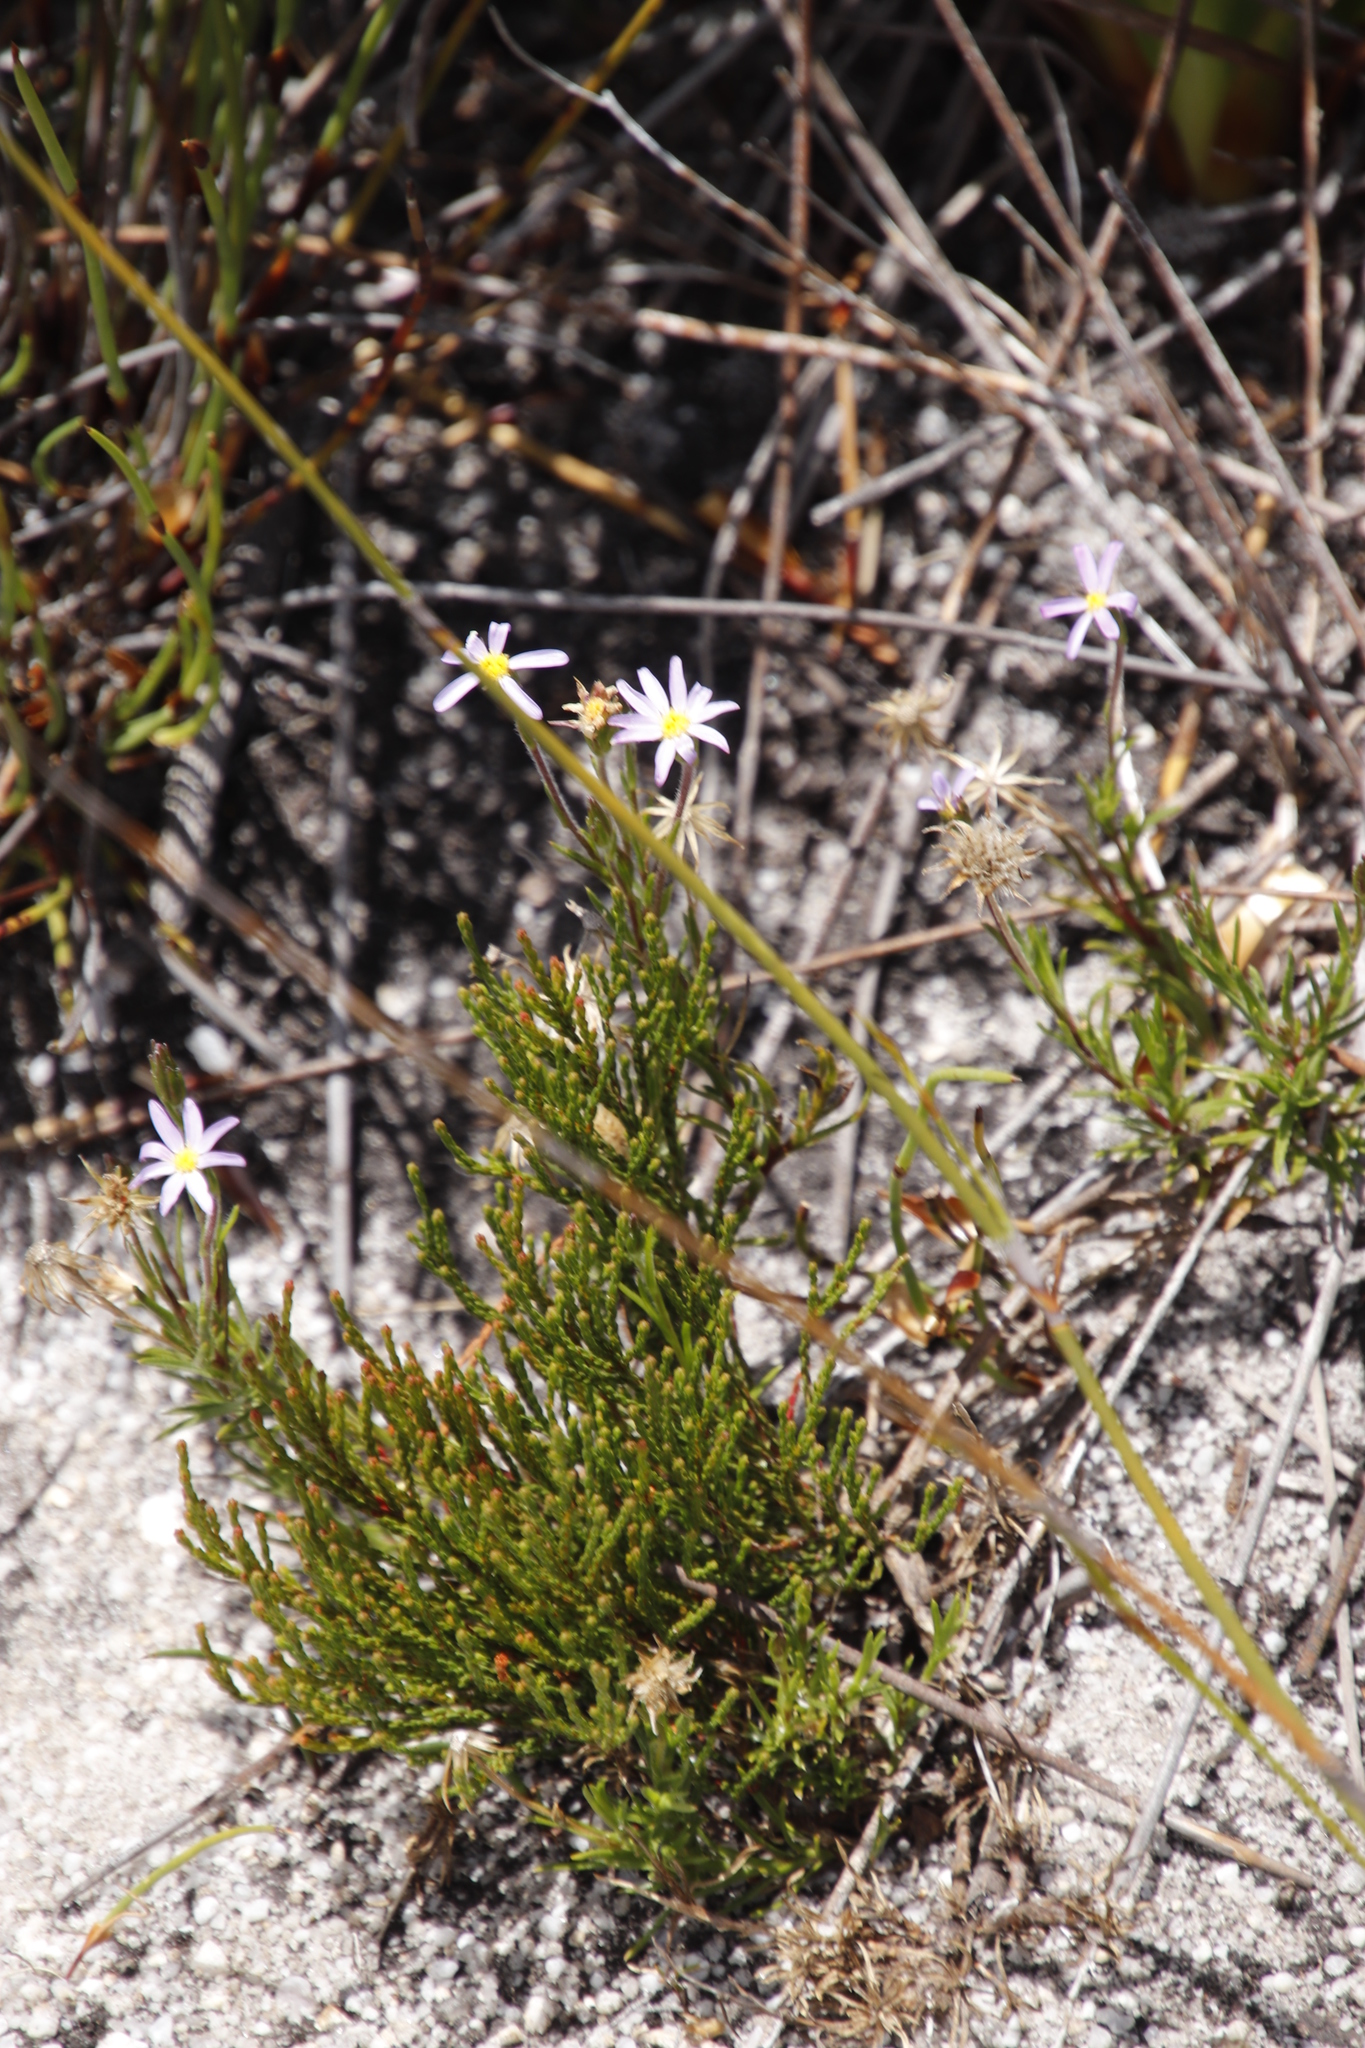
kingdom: Plantae
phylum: Tracheophyta
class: Magnoliopsida
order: Asterales
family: Asteraceae
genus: Zyrphelis
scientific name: Zyrphelis taxifolia
